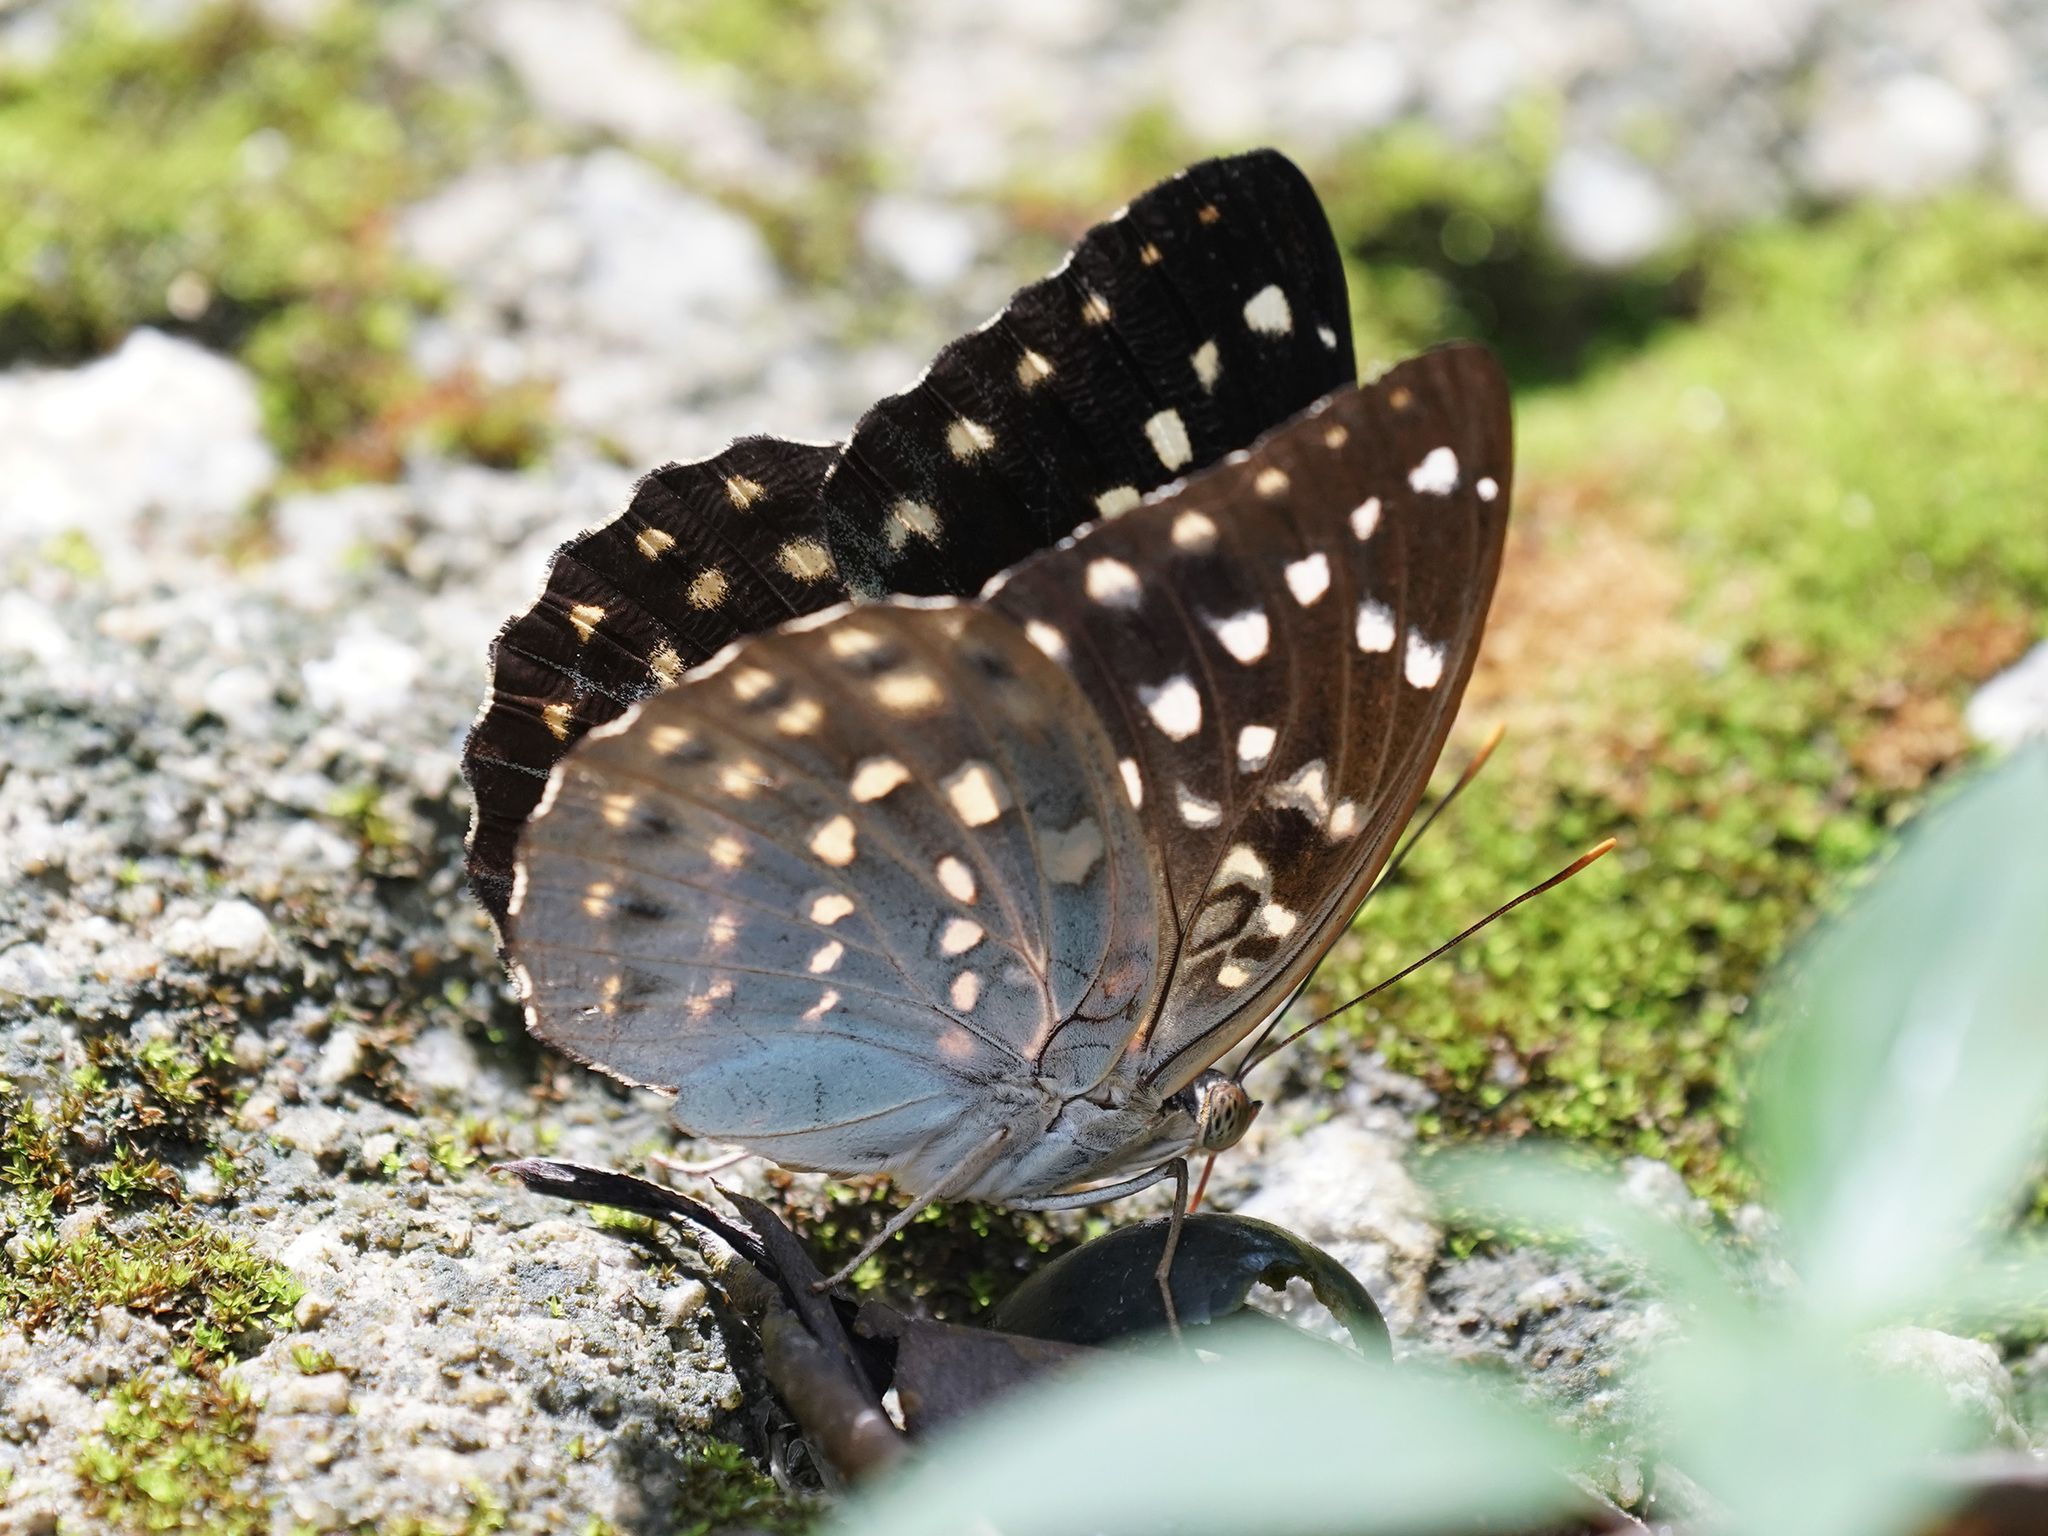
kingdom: Animalia
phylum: Arthropoda
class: Insecta
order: Lepidoptera
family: Nymphalidae
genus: Lexias
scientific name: Lexias pardalis
